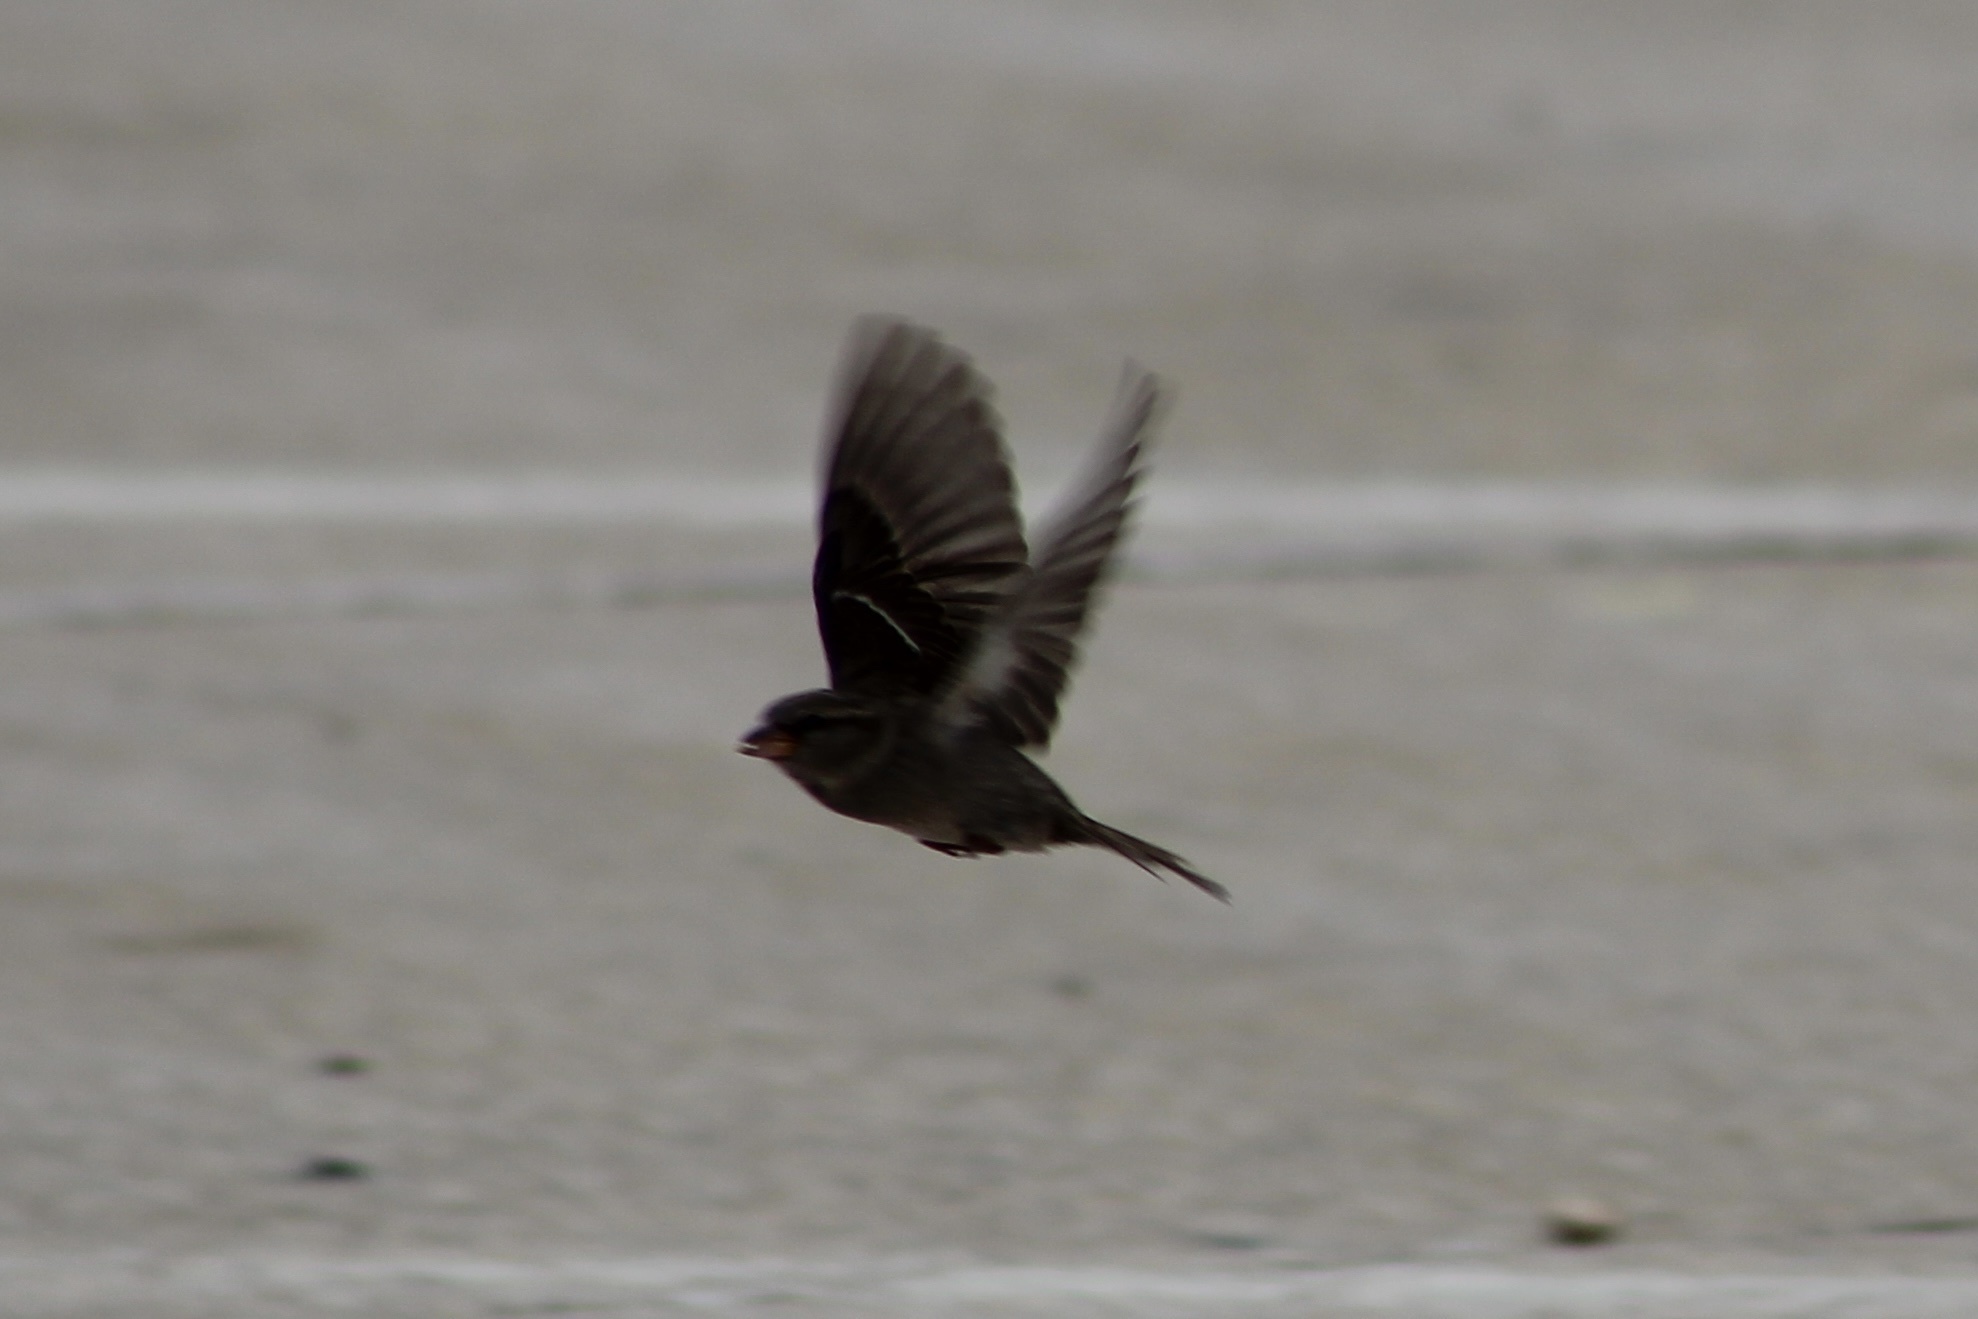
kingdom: Animalia
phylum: Chordata
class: Aves
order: Passeriformes
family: Passeridae
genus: Passer
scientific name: Passer domesticus
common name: House sparrow
